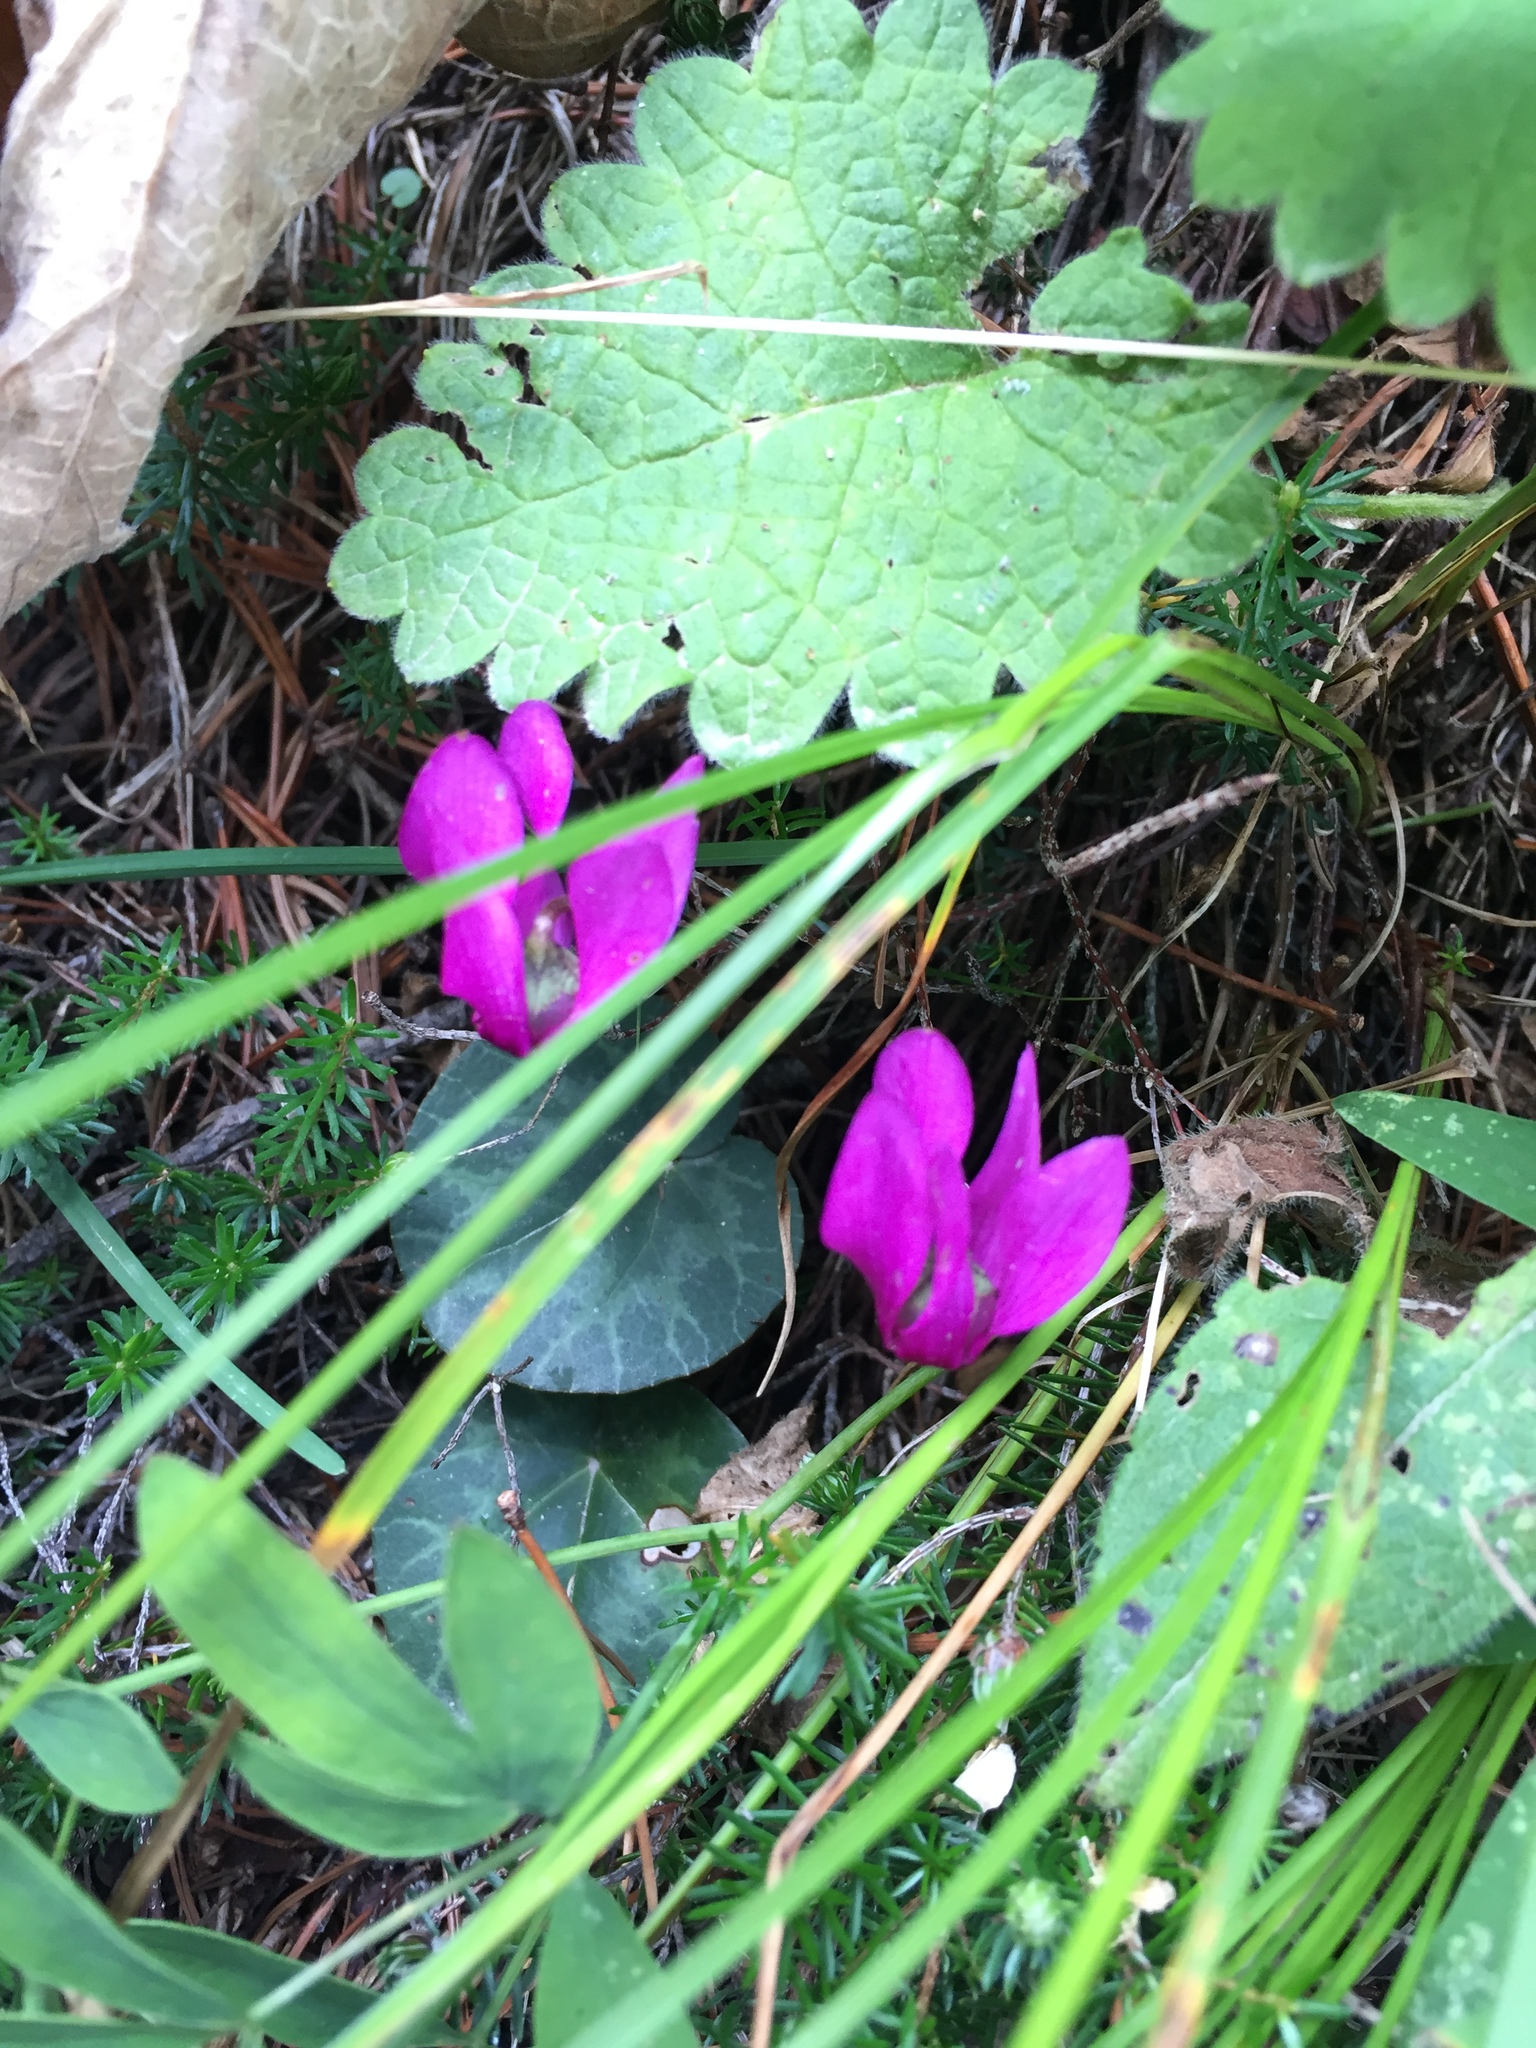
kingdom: Plantae
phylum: Tracheophyta
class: Magnoliopsida
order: Ericales
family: Primulaceae
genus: Cyclamen
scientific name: Cyclamen purpurascens
